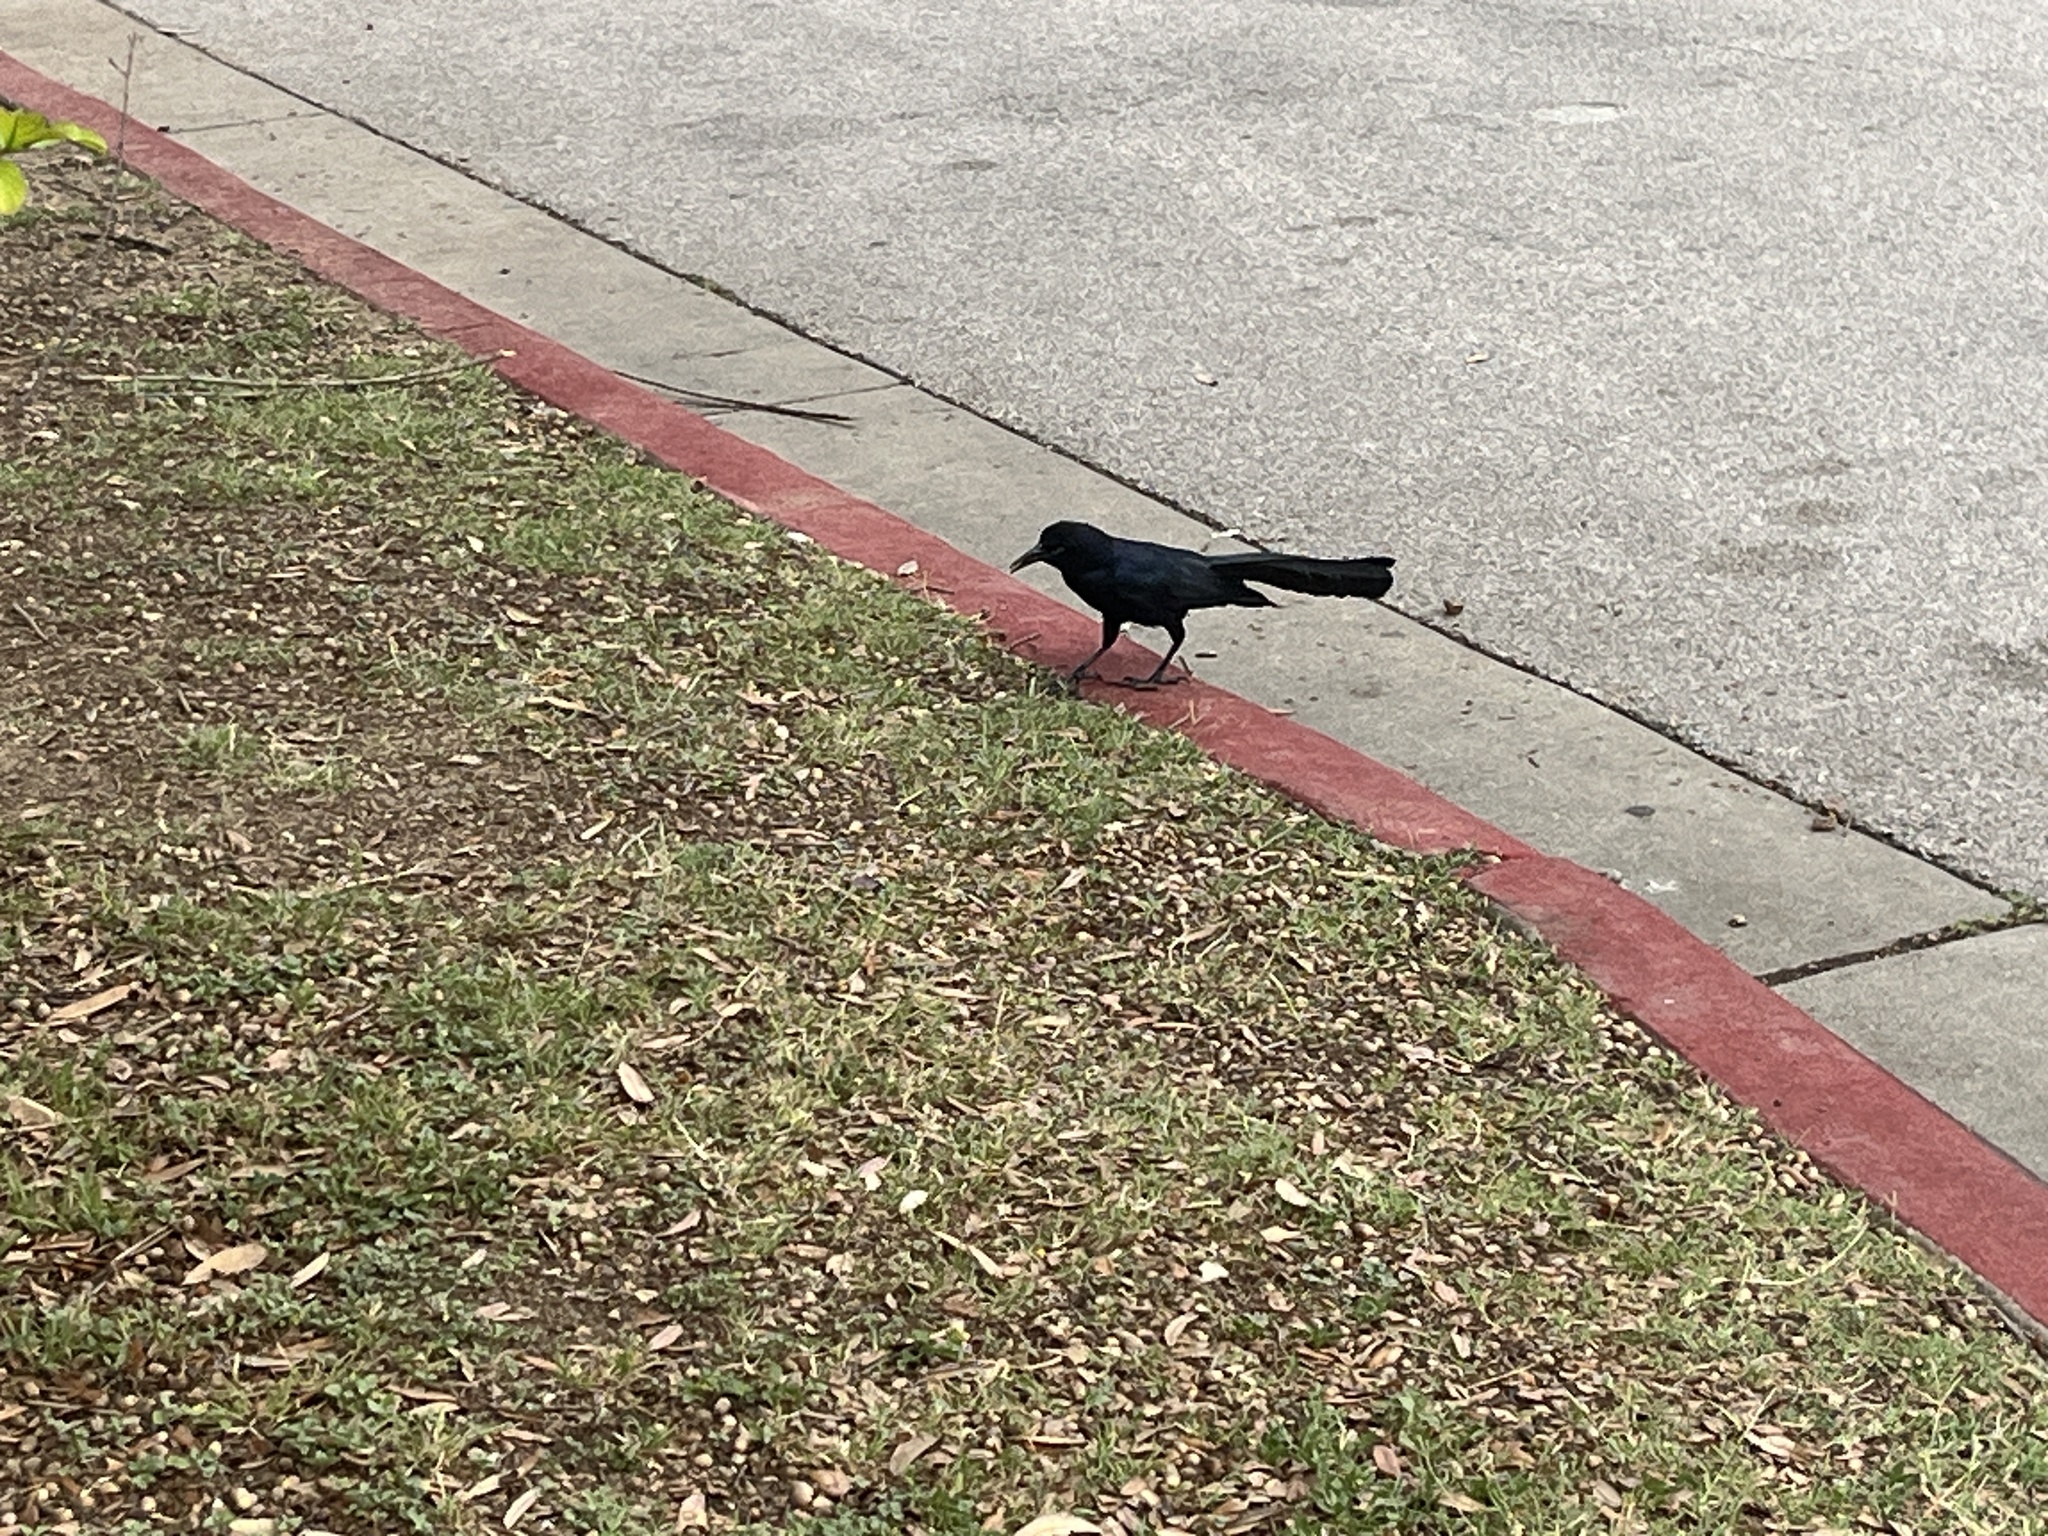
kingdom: Animalia
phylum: Chordata
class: Aves
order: Passeriformes
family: Icteridae
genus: Quiscalus
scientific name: Quiscalus mexicanus
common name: Great-tailed grackle
